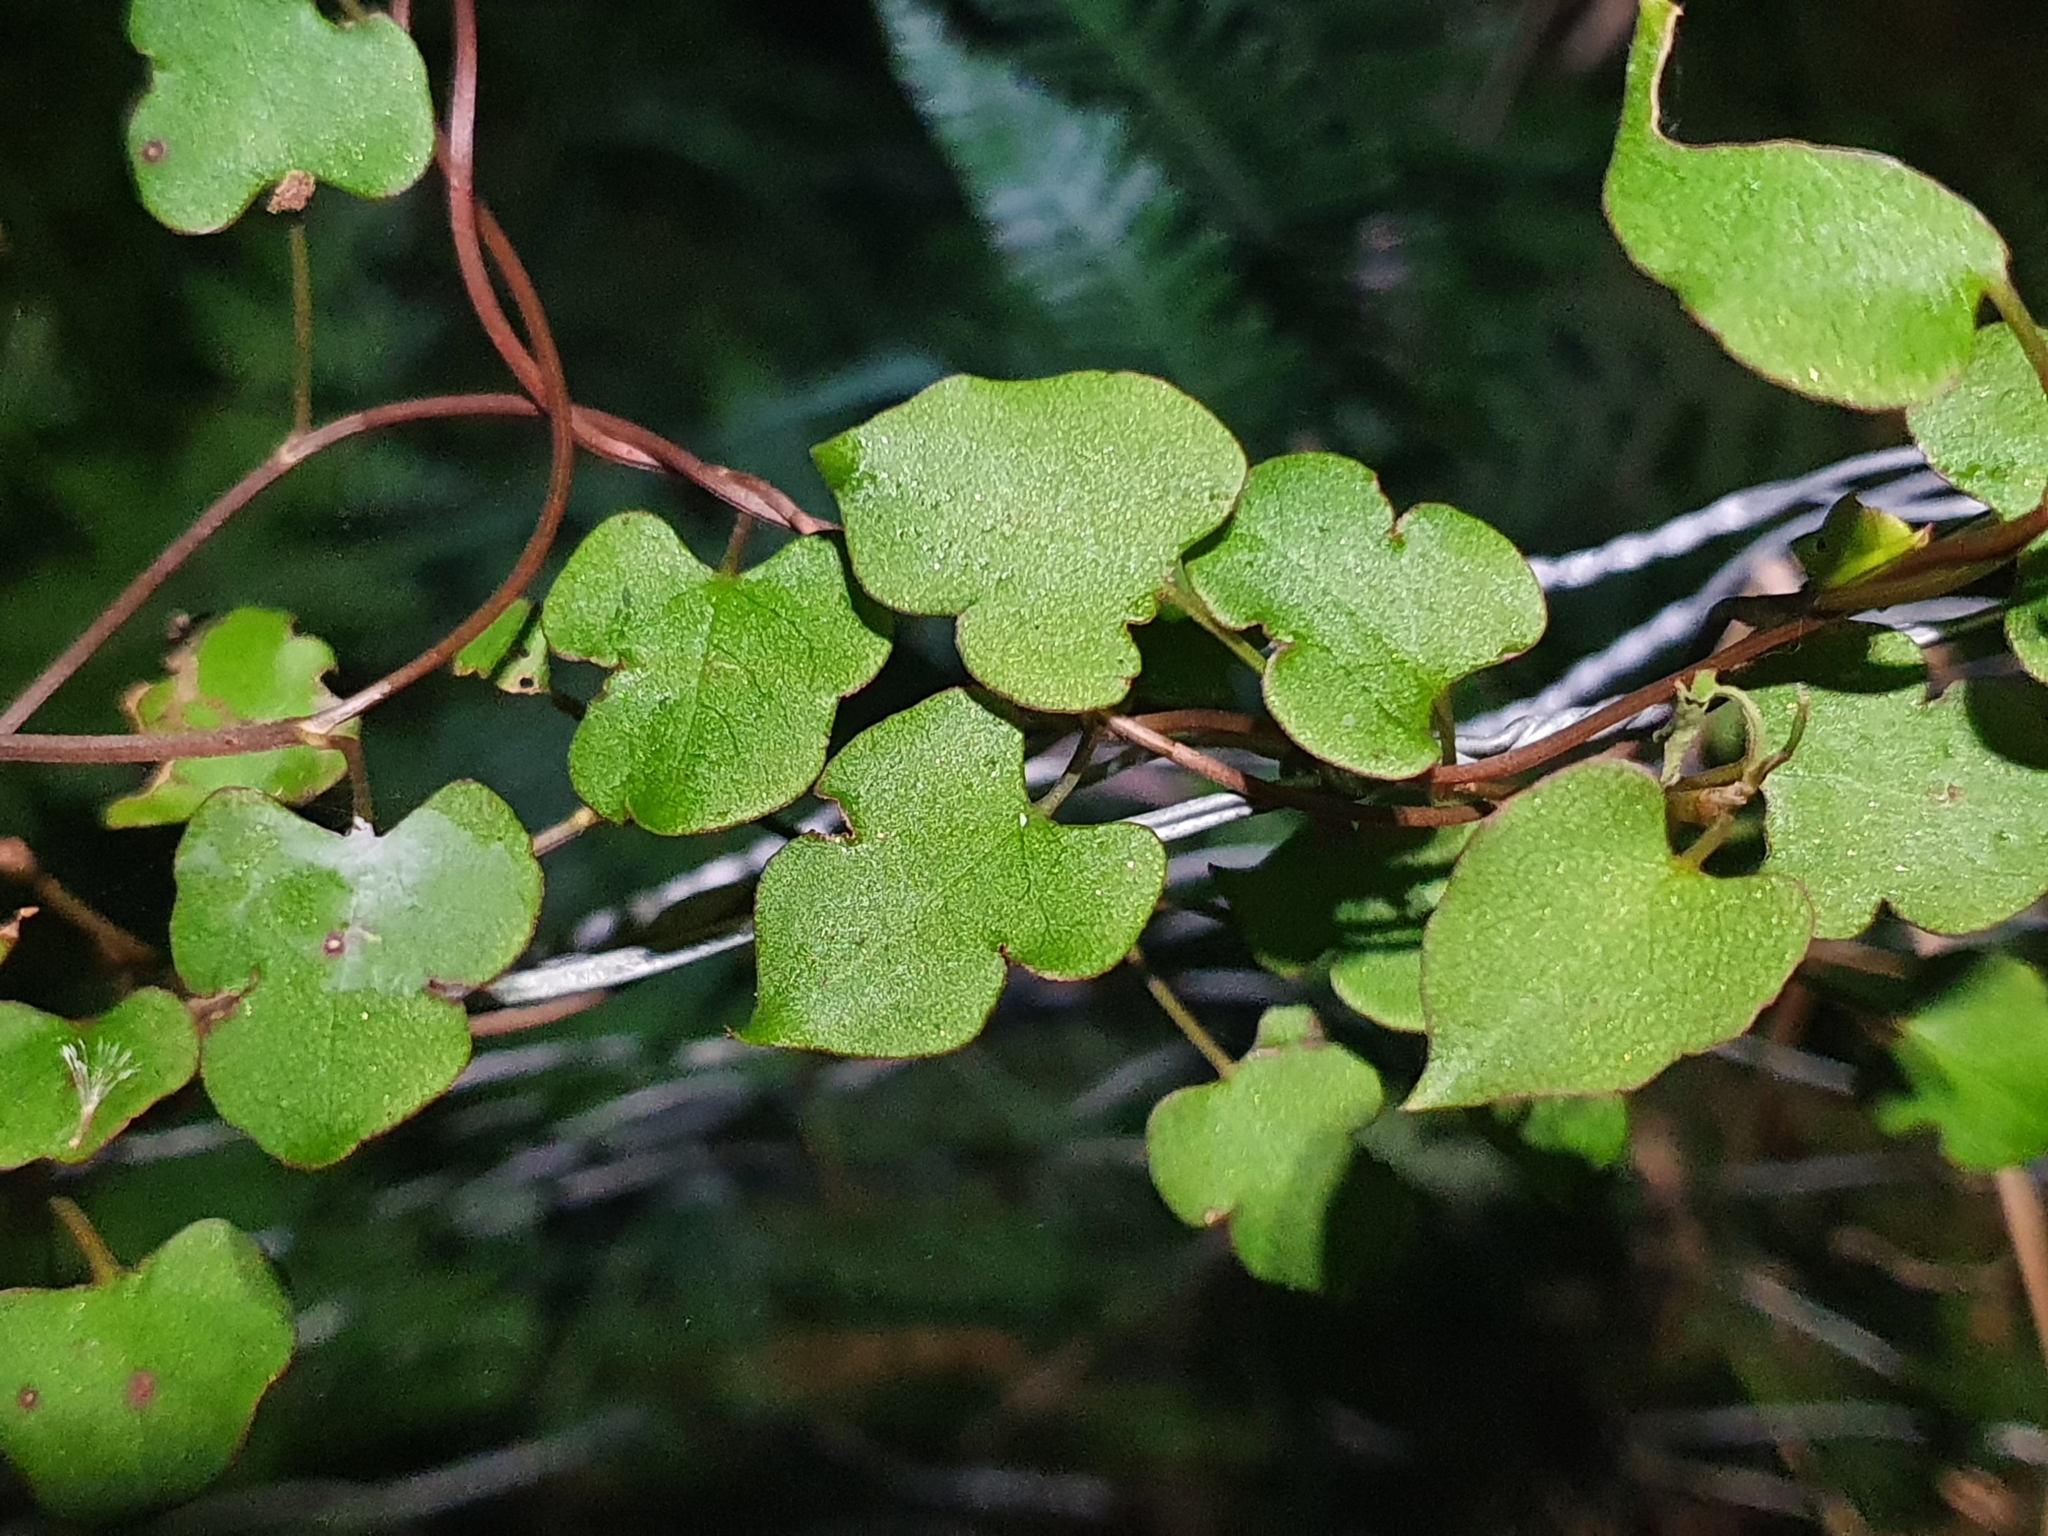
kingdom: Plantae
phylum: Tracheophyta
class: Magnoliopsida
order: Caryophyllales
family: Polygonaceae
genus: Muehlenbeckia
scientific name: Muehlenbeckia australis
